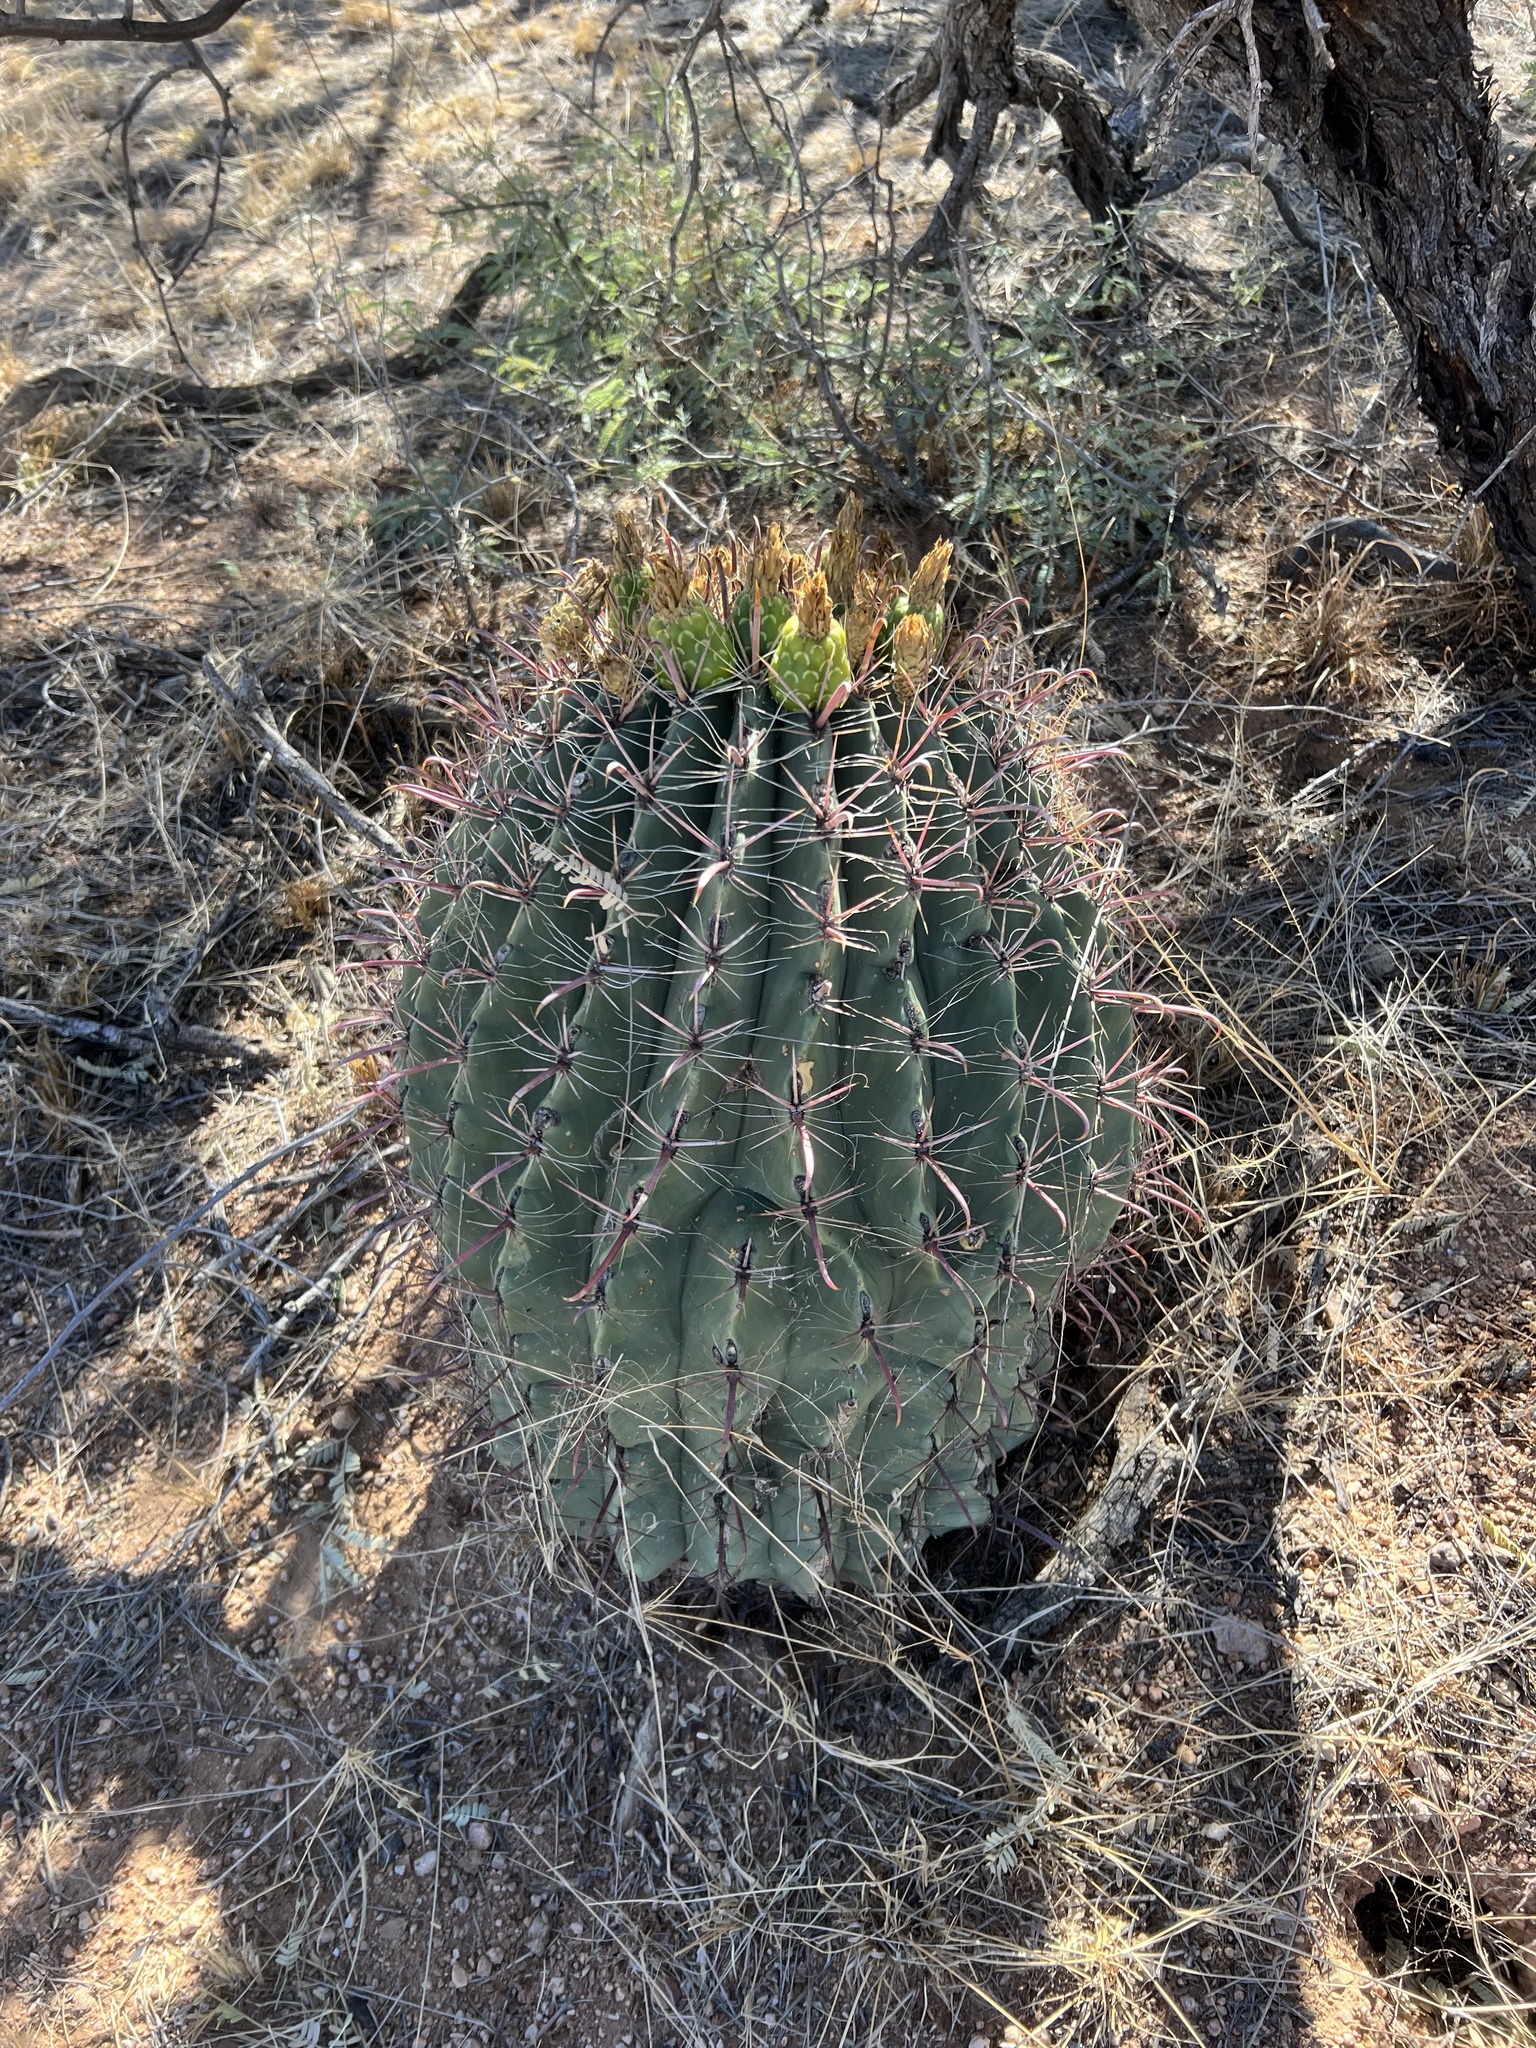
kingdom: Plantae
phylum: Tracheophyta
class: Magnoliopsida
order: Caryophyllales
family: Cactaceae
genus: Ferocactus
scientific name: Ferocactus wislizeni
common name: Candy barrel cactus
